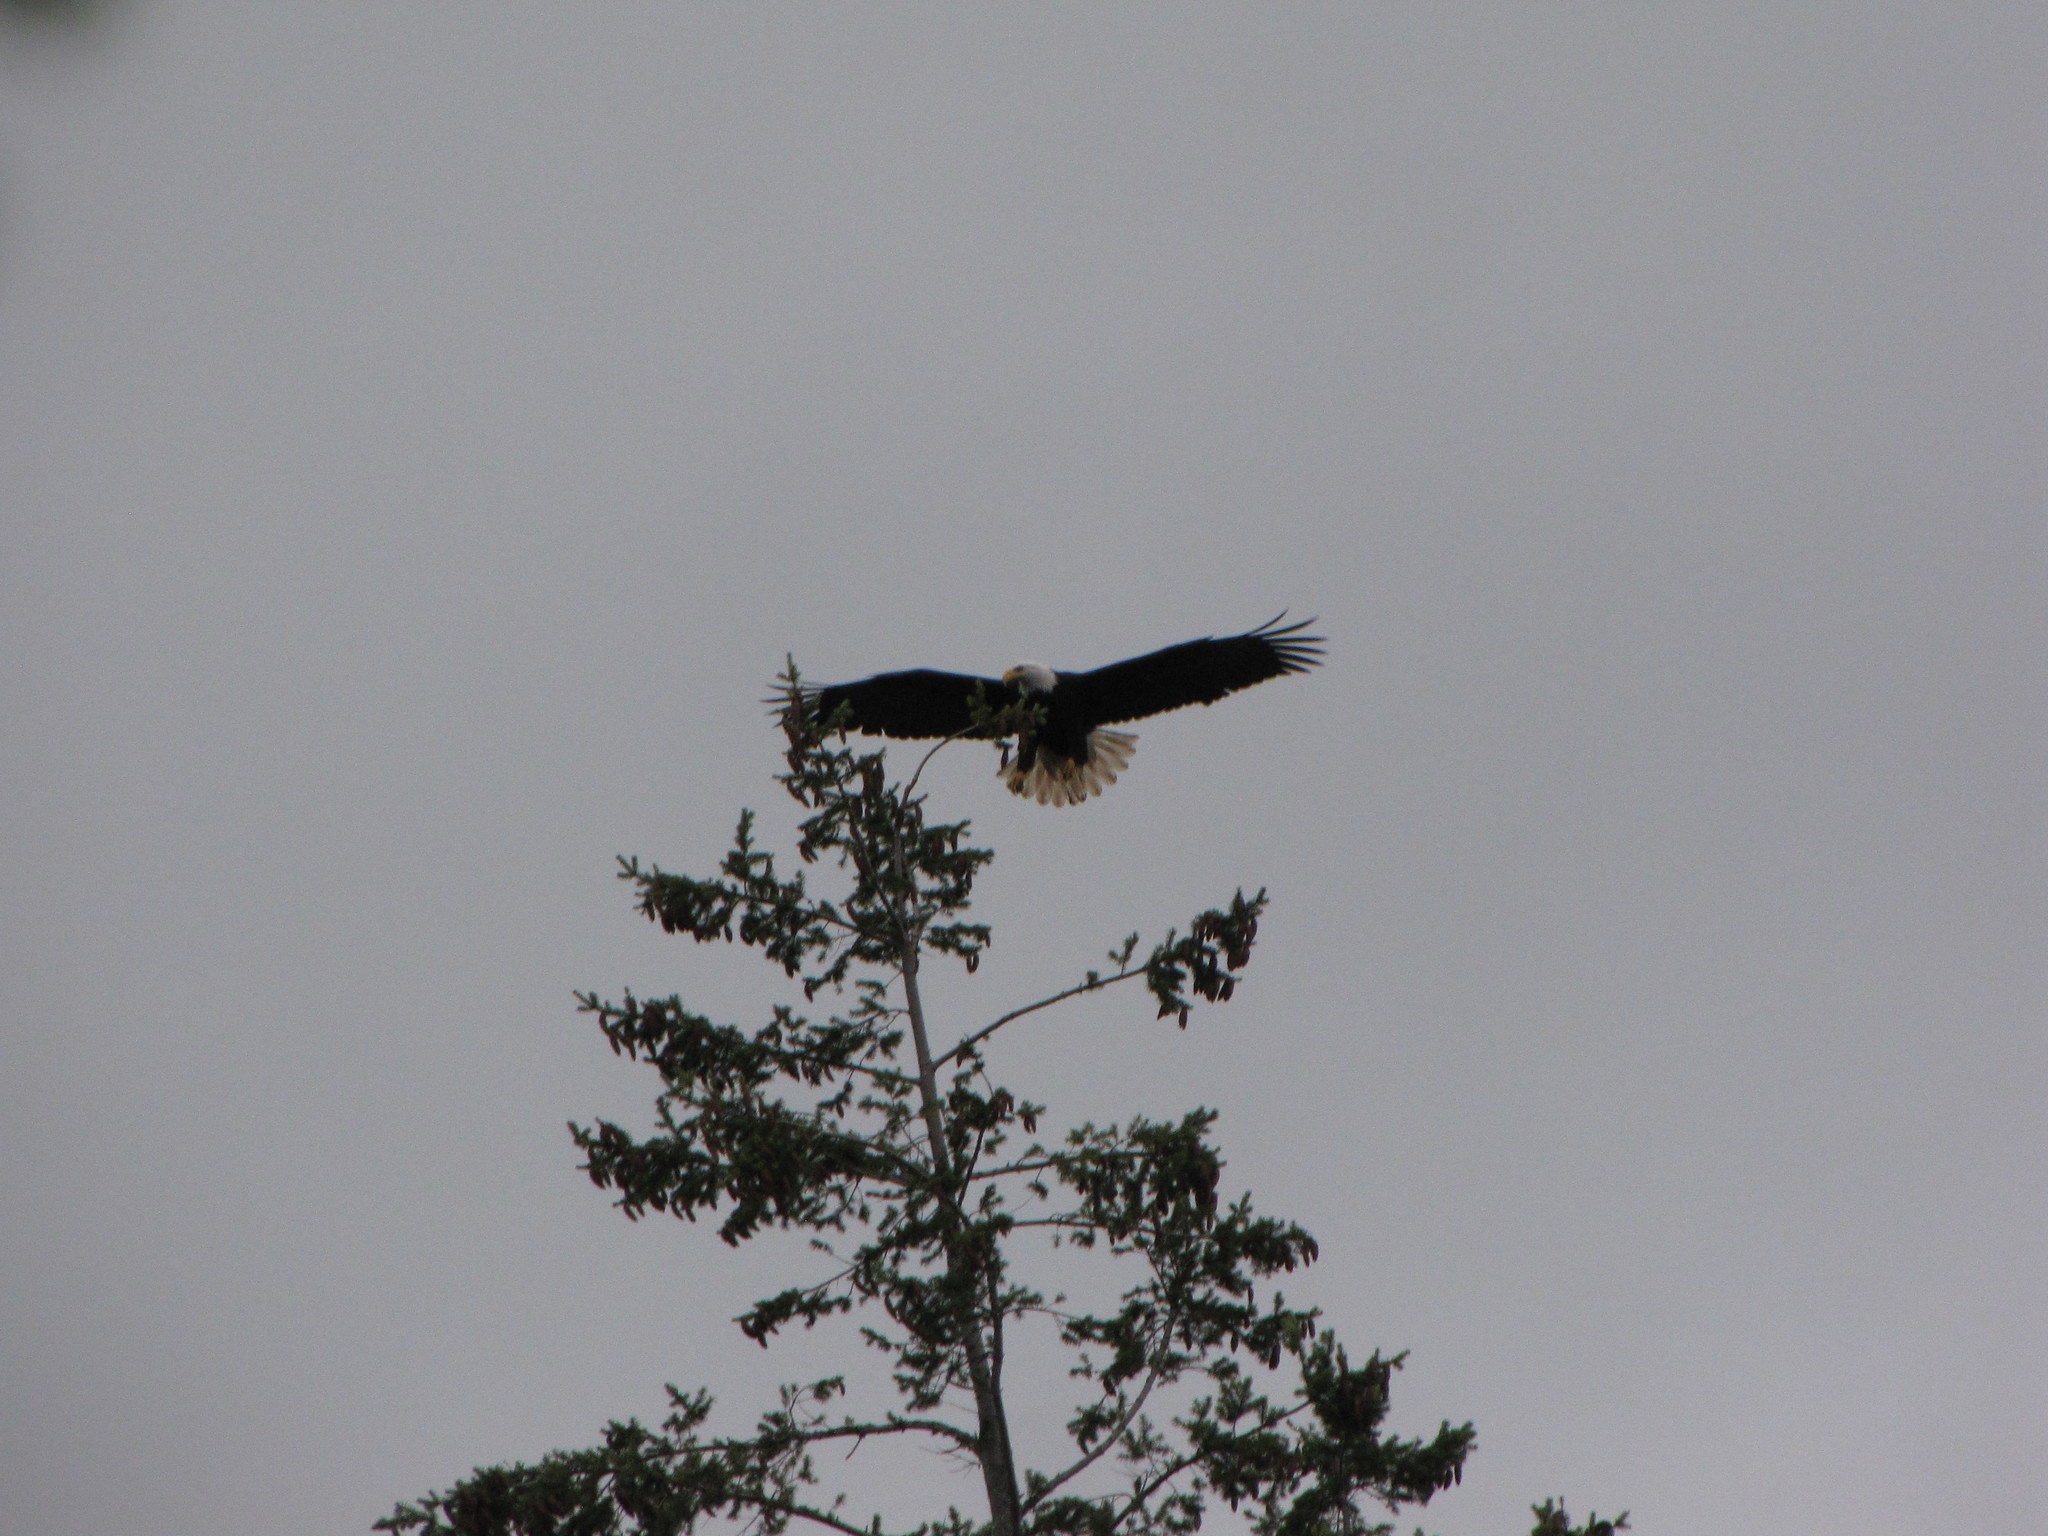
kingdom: Animalia
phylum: Chordata
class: Aves
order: Accipitriformes
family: Accipitridae
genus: Haliaeetus
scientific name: Haliaeetus leucocephalus
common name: Bald eagle
